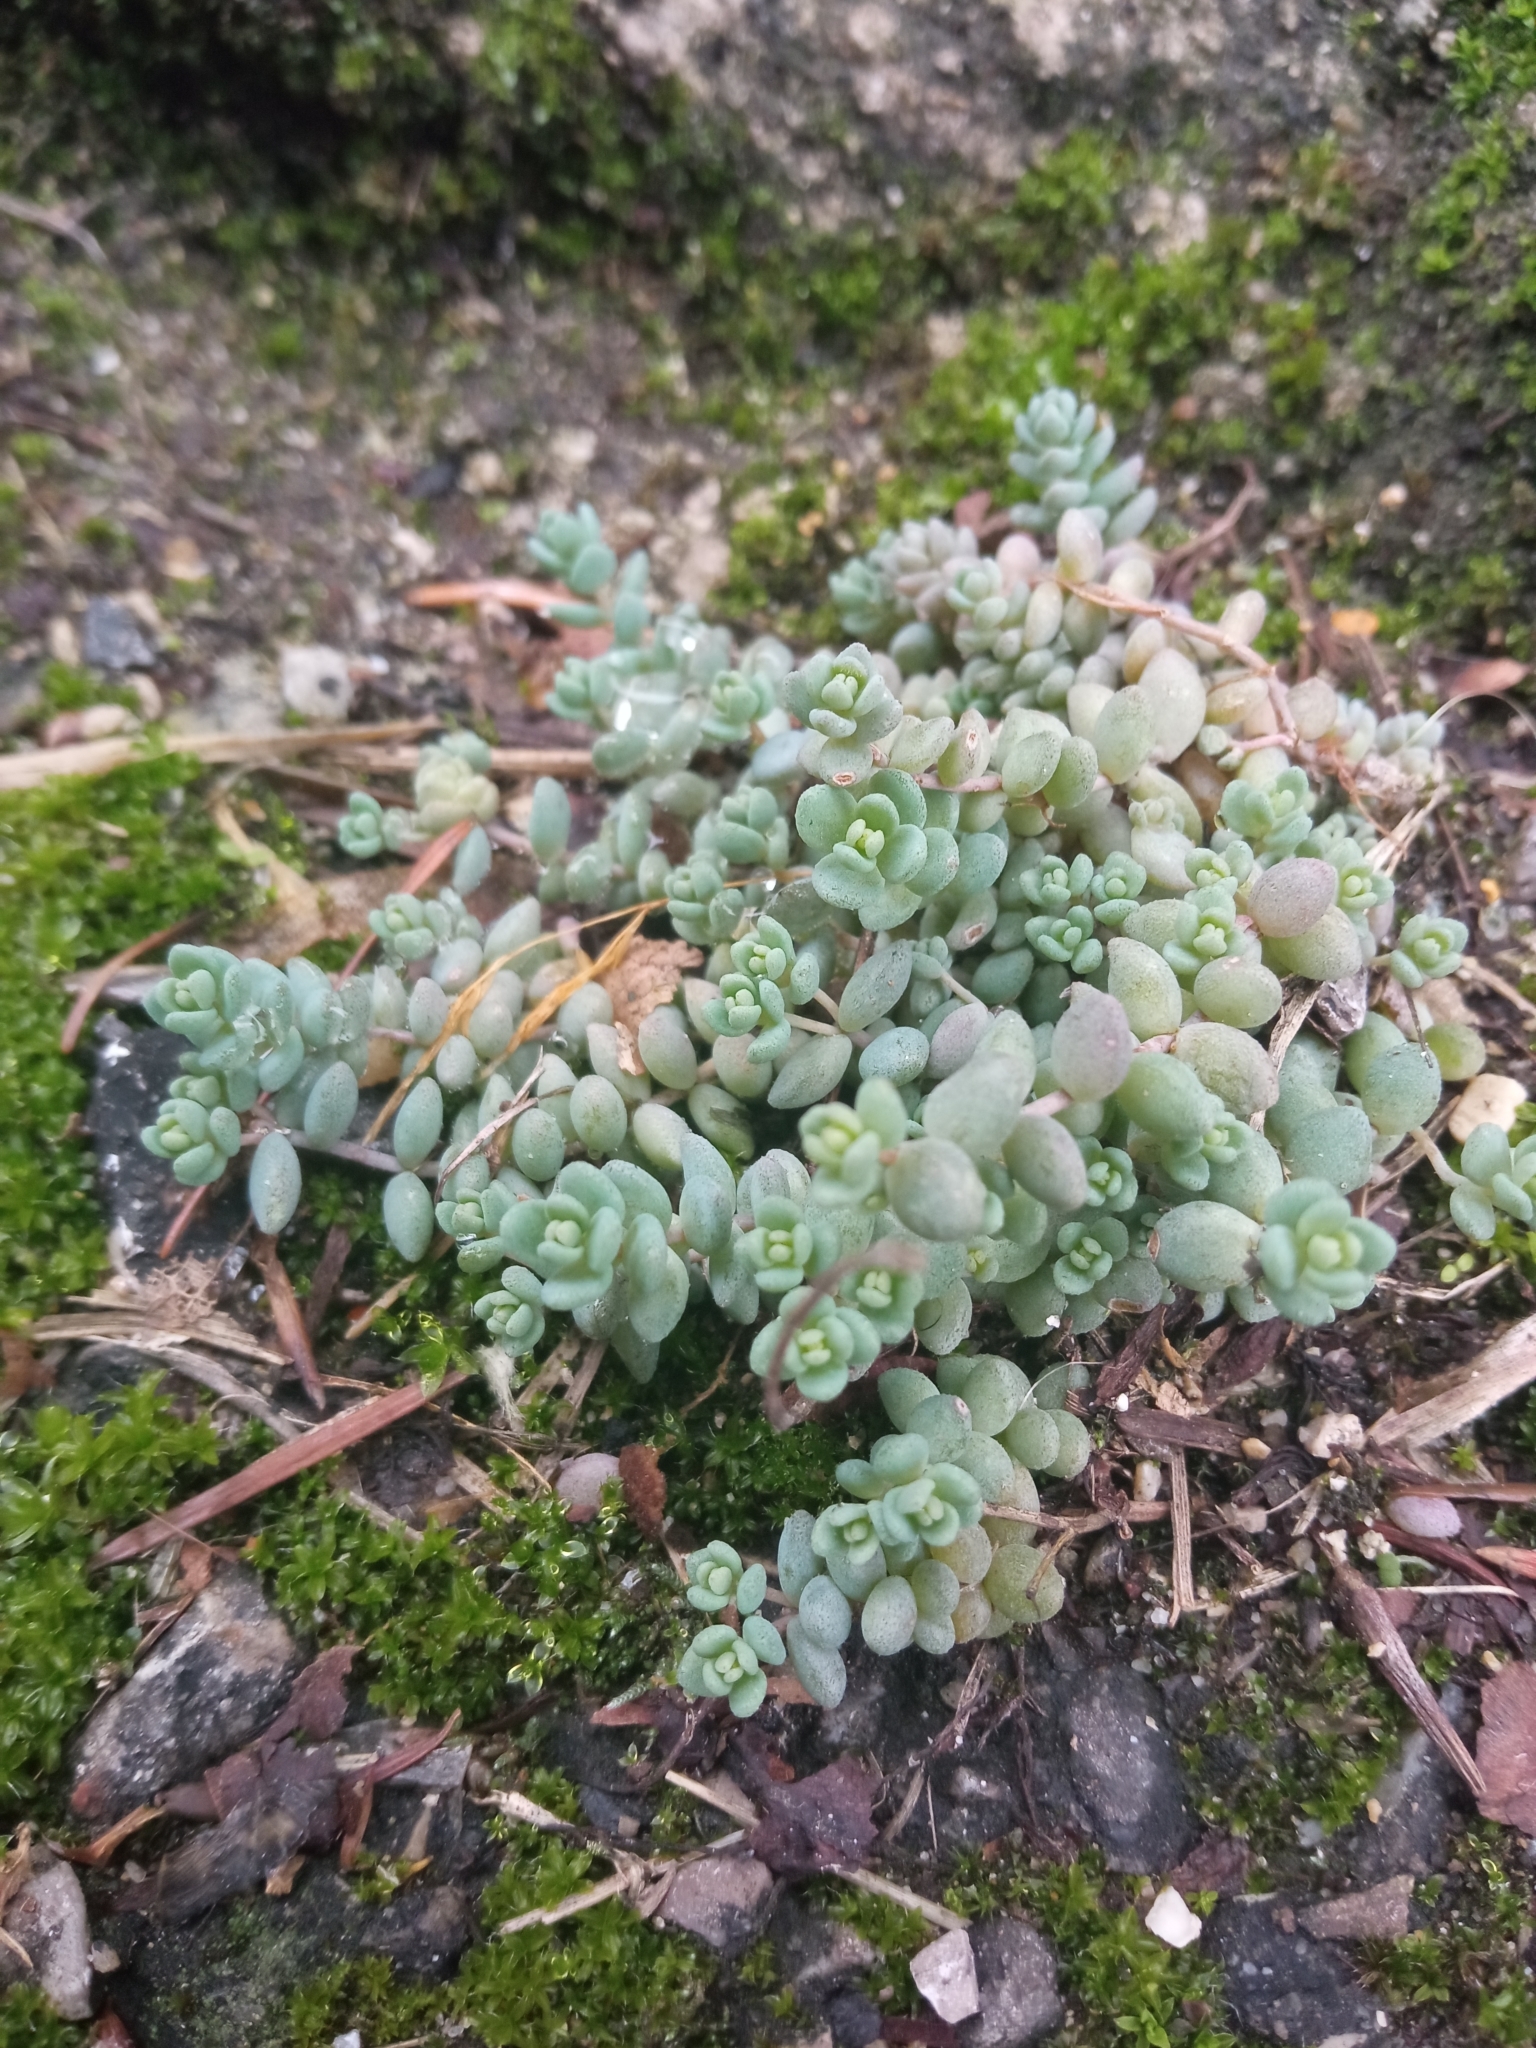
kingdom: Plantae
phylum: Tracheophyta
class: Magnoliopsida
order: Saxifragales
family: Crassulaceae
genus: Sedum
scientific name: Sedum dasyphyllum
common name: Thick-leaf stonecrop
